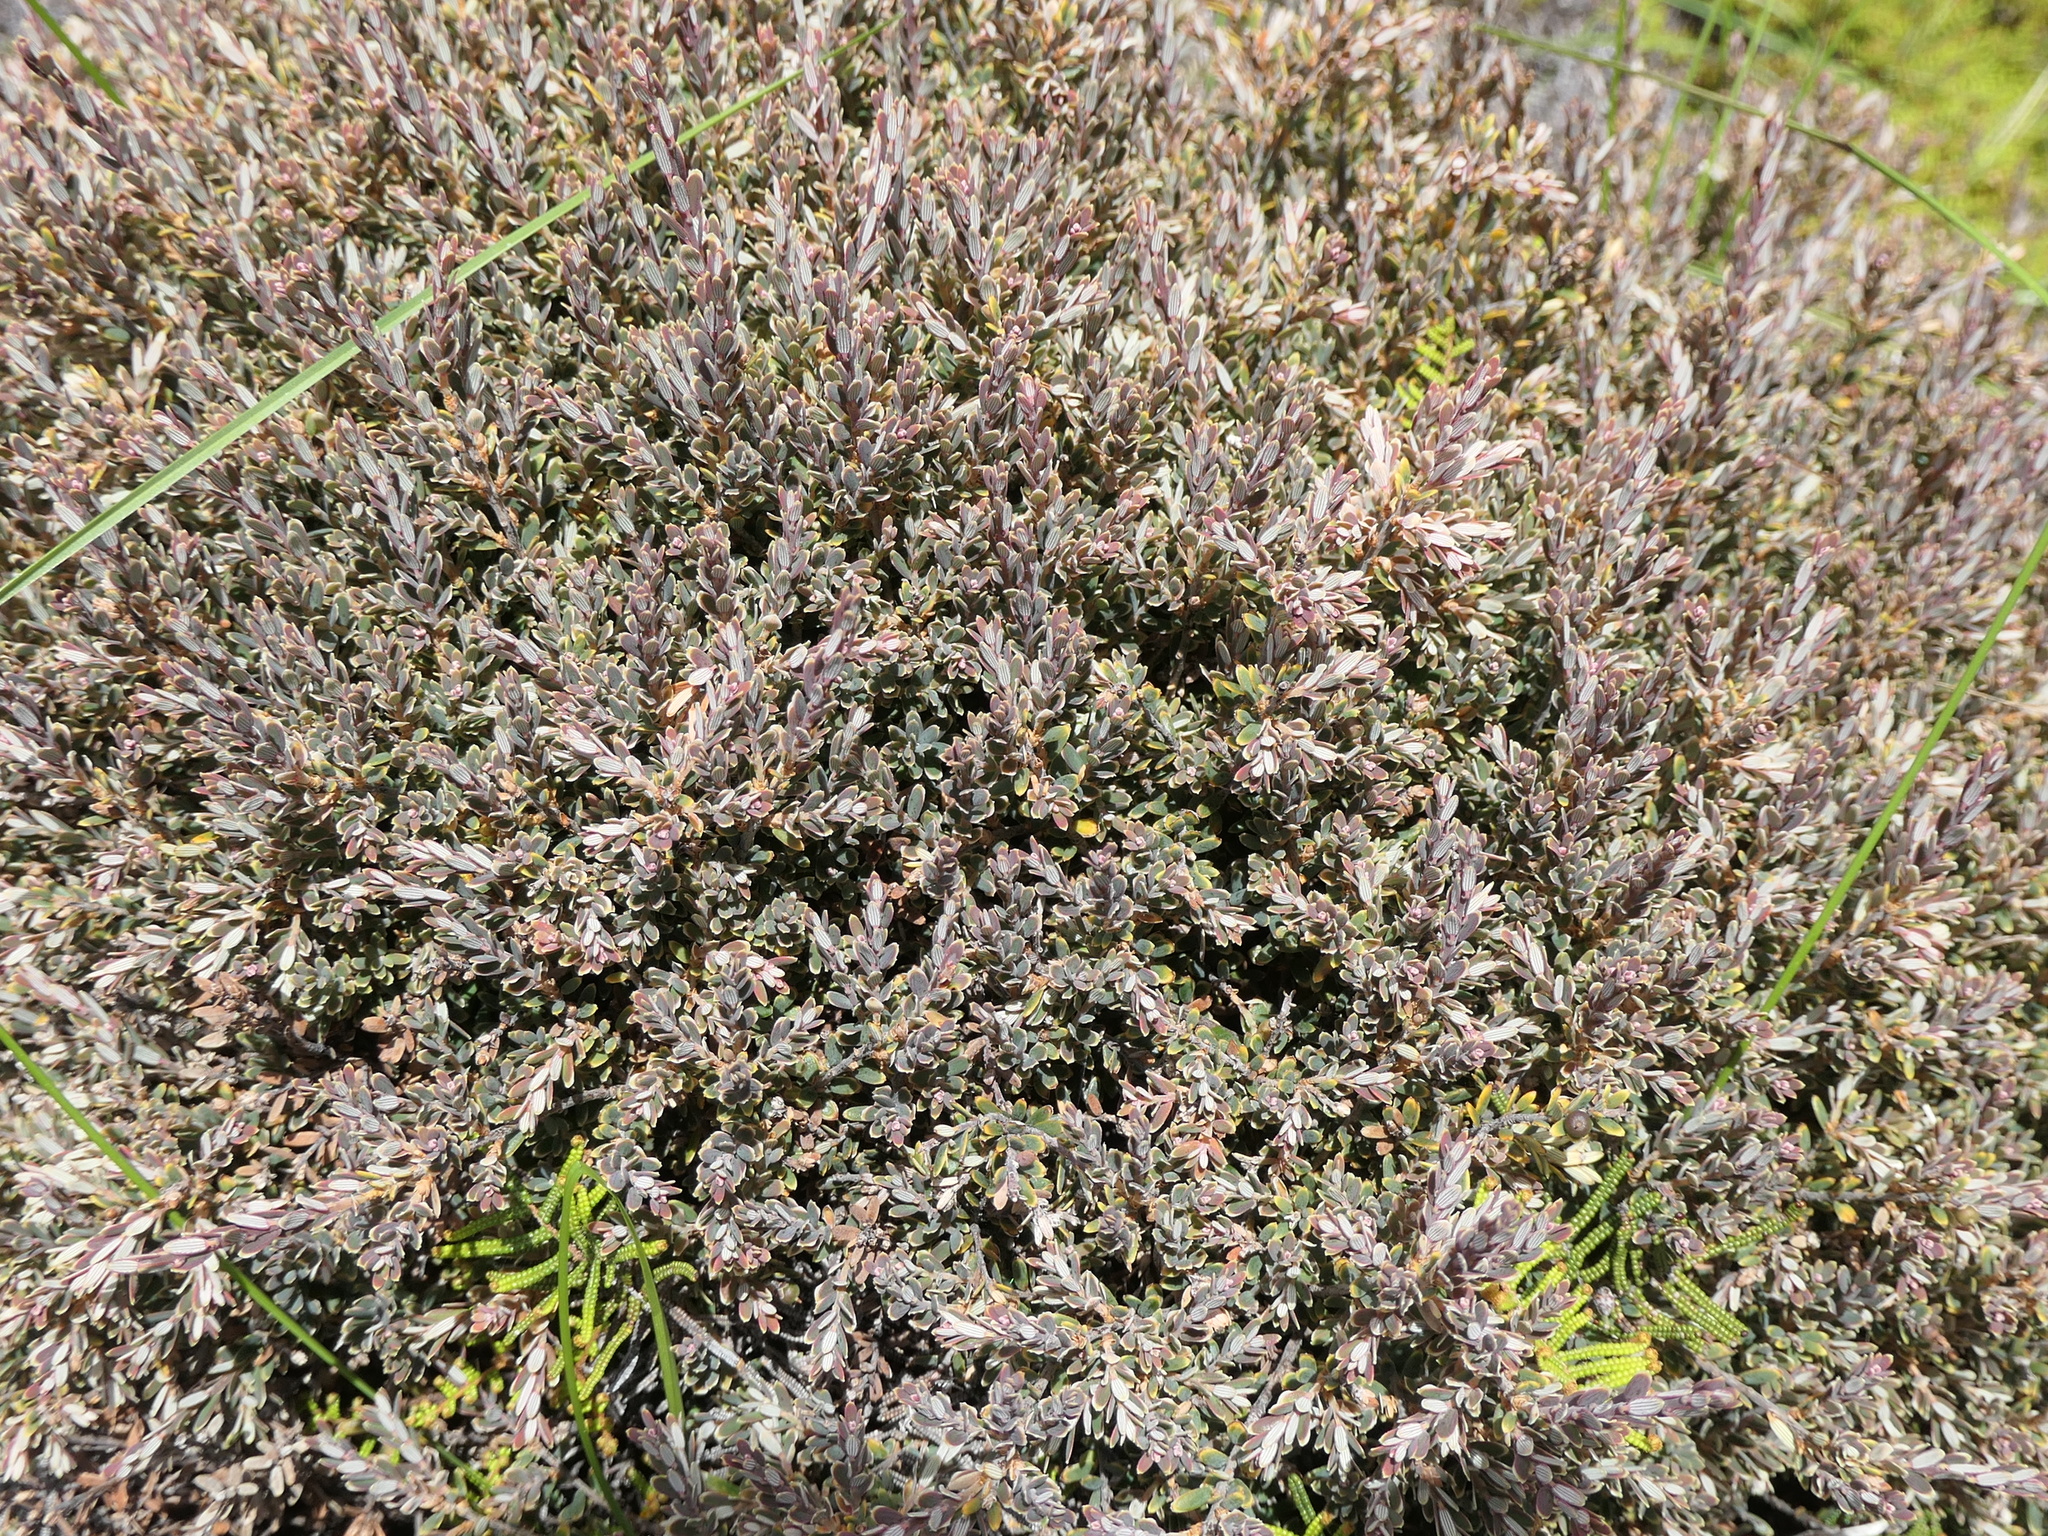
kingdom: Plantae
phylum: Tracheophyta
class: Magnoliopsida
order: Ericales
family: Ericaceae
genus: Acrothamnus
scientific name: Acrothamnus colensoi
